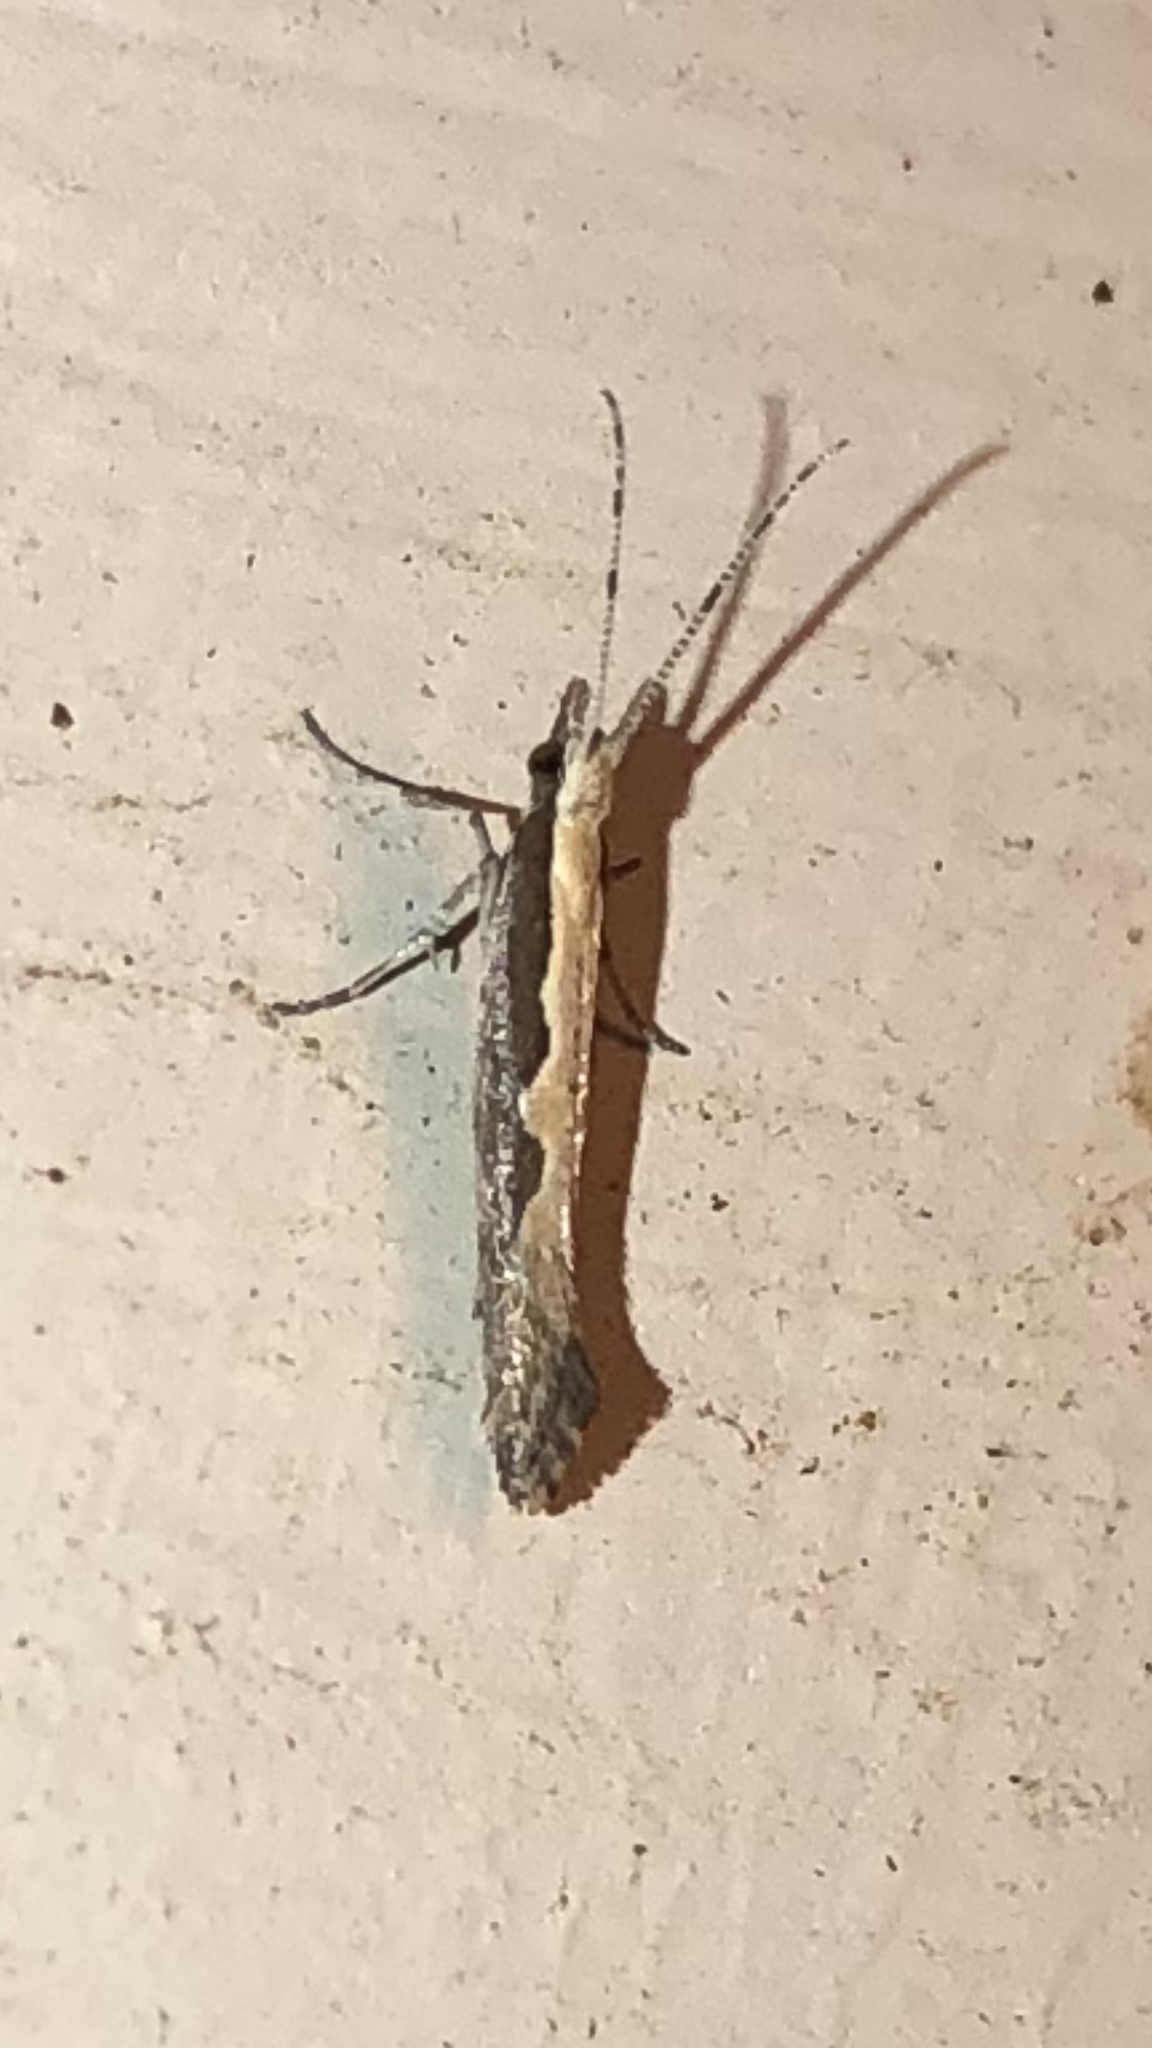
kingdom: Animalia
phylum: Arthropoda
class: Insecta
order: Lepidoptera
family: Plutellidae
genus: Plutella
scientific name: Plutella xylostella
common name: Diamond-back moth
